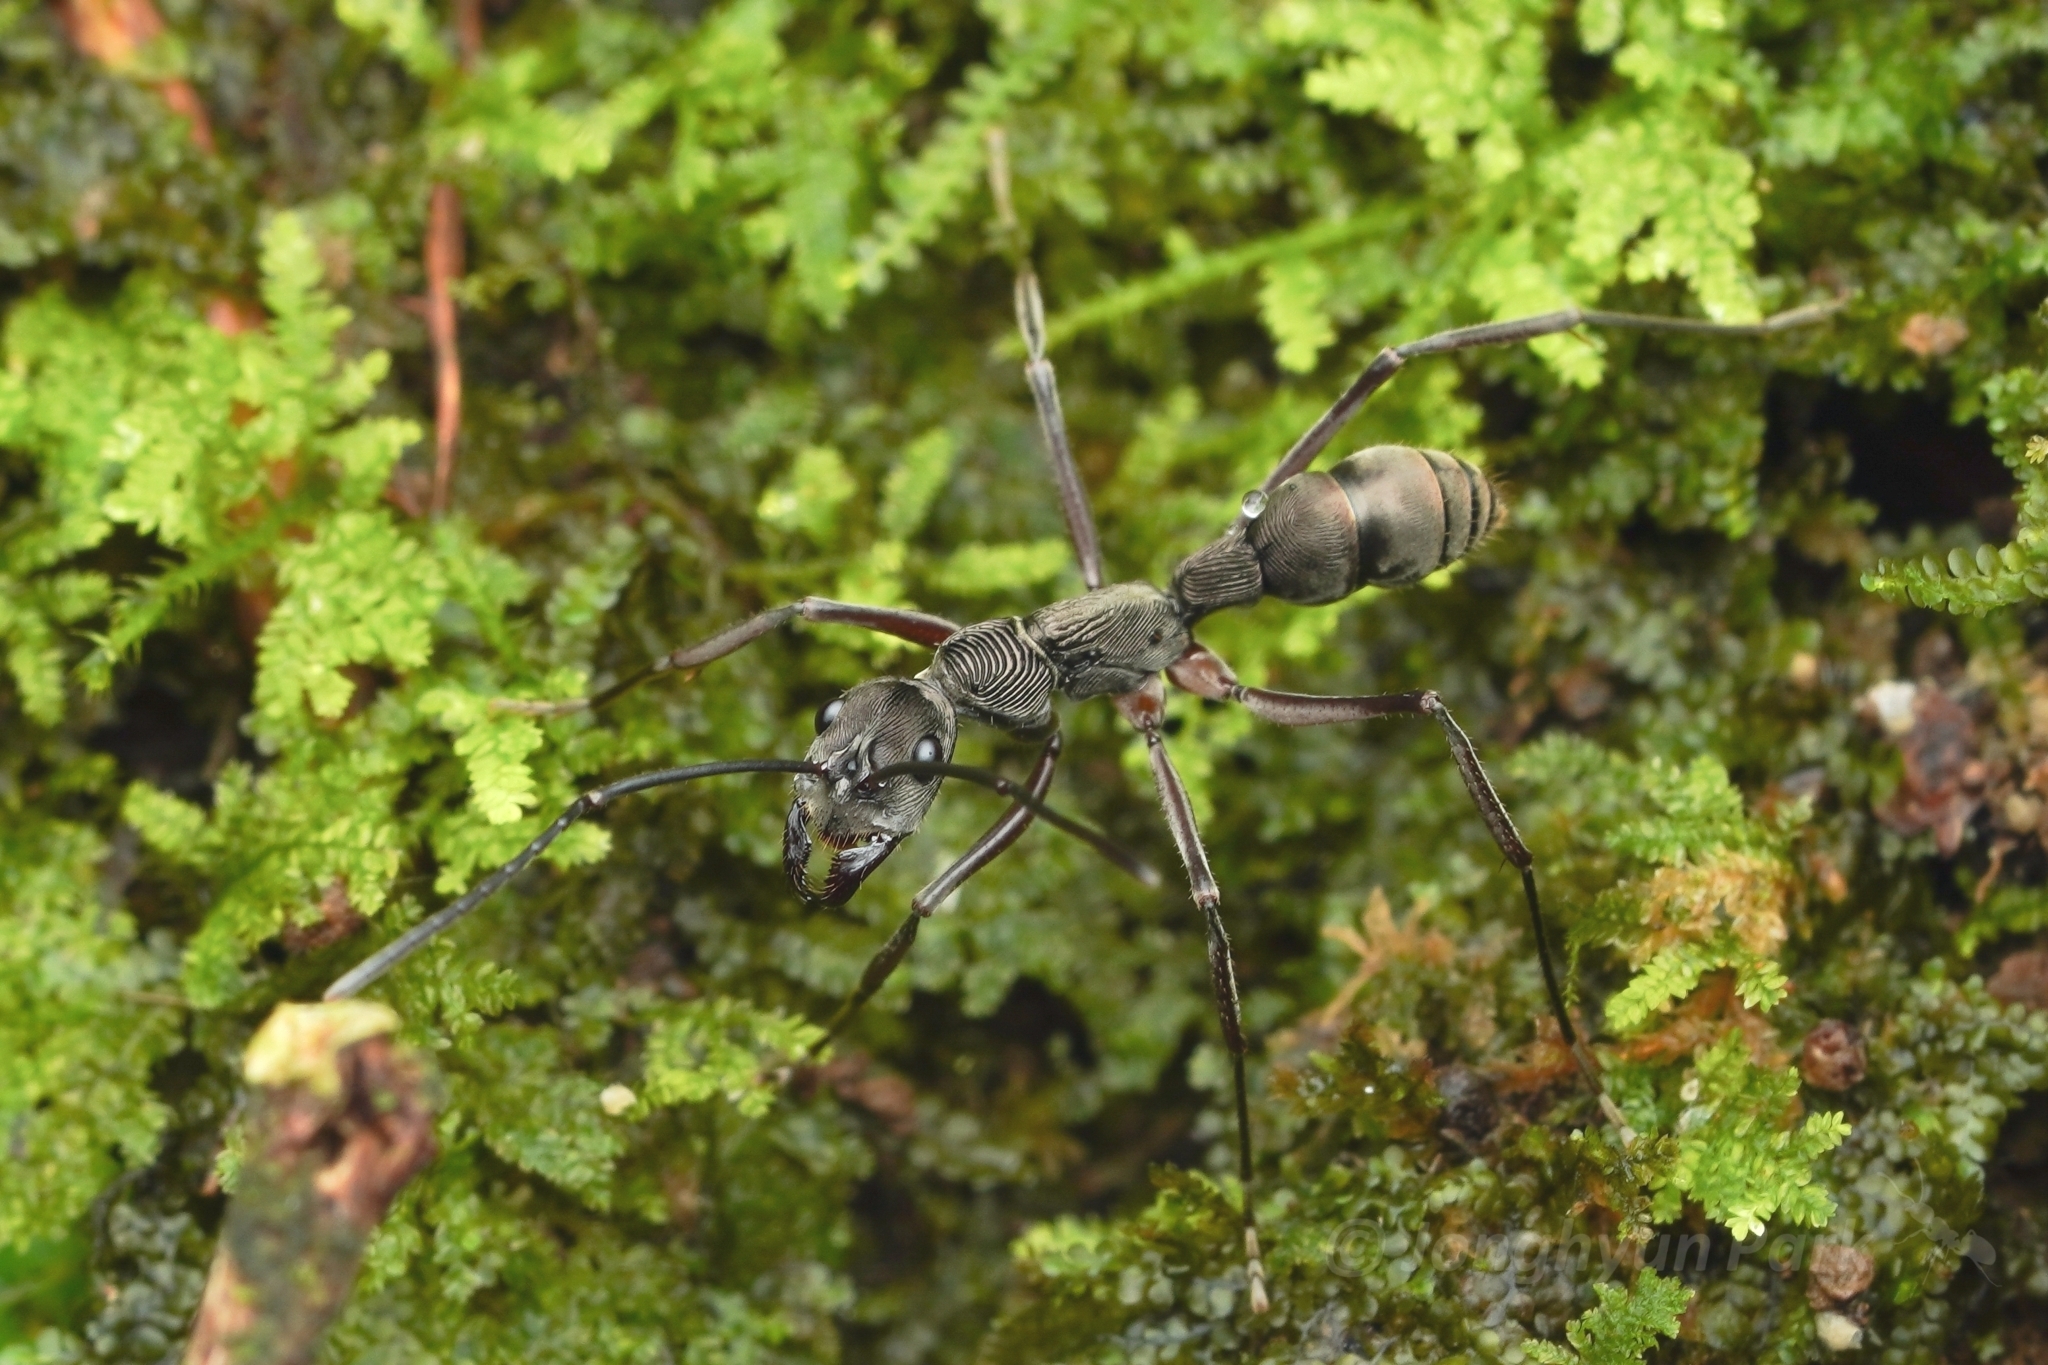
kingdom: Animalia
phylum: Arthropoda
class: Insecta
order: Hymenoptera
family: Formicidae
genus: Diacamma
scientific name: Diacamma
